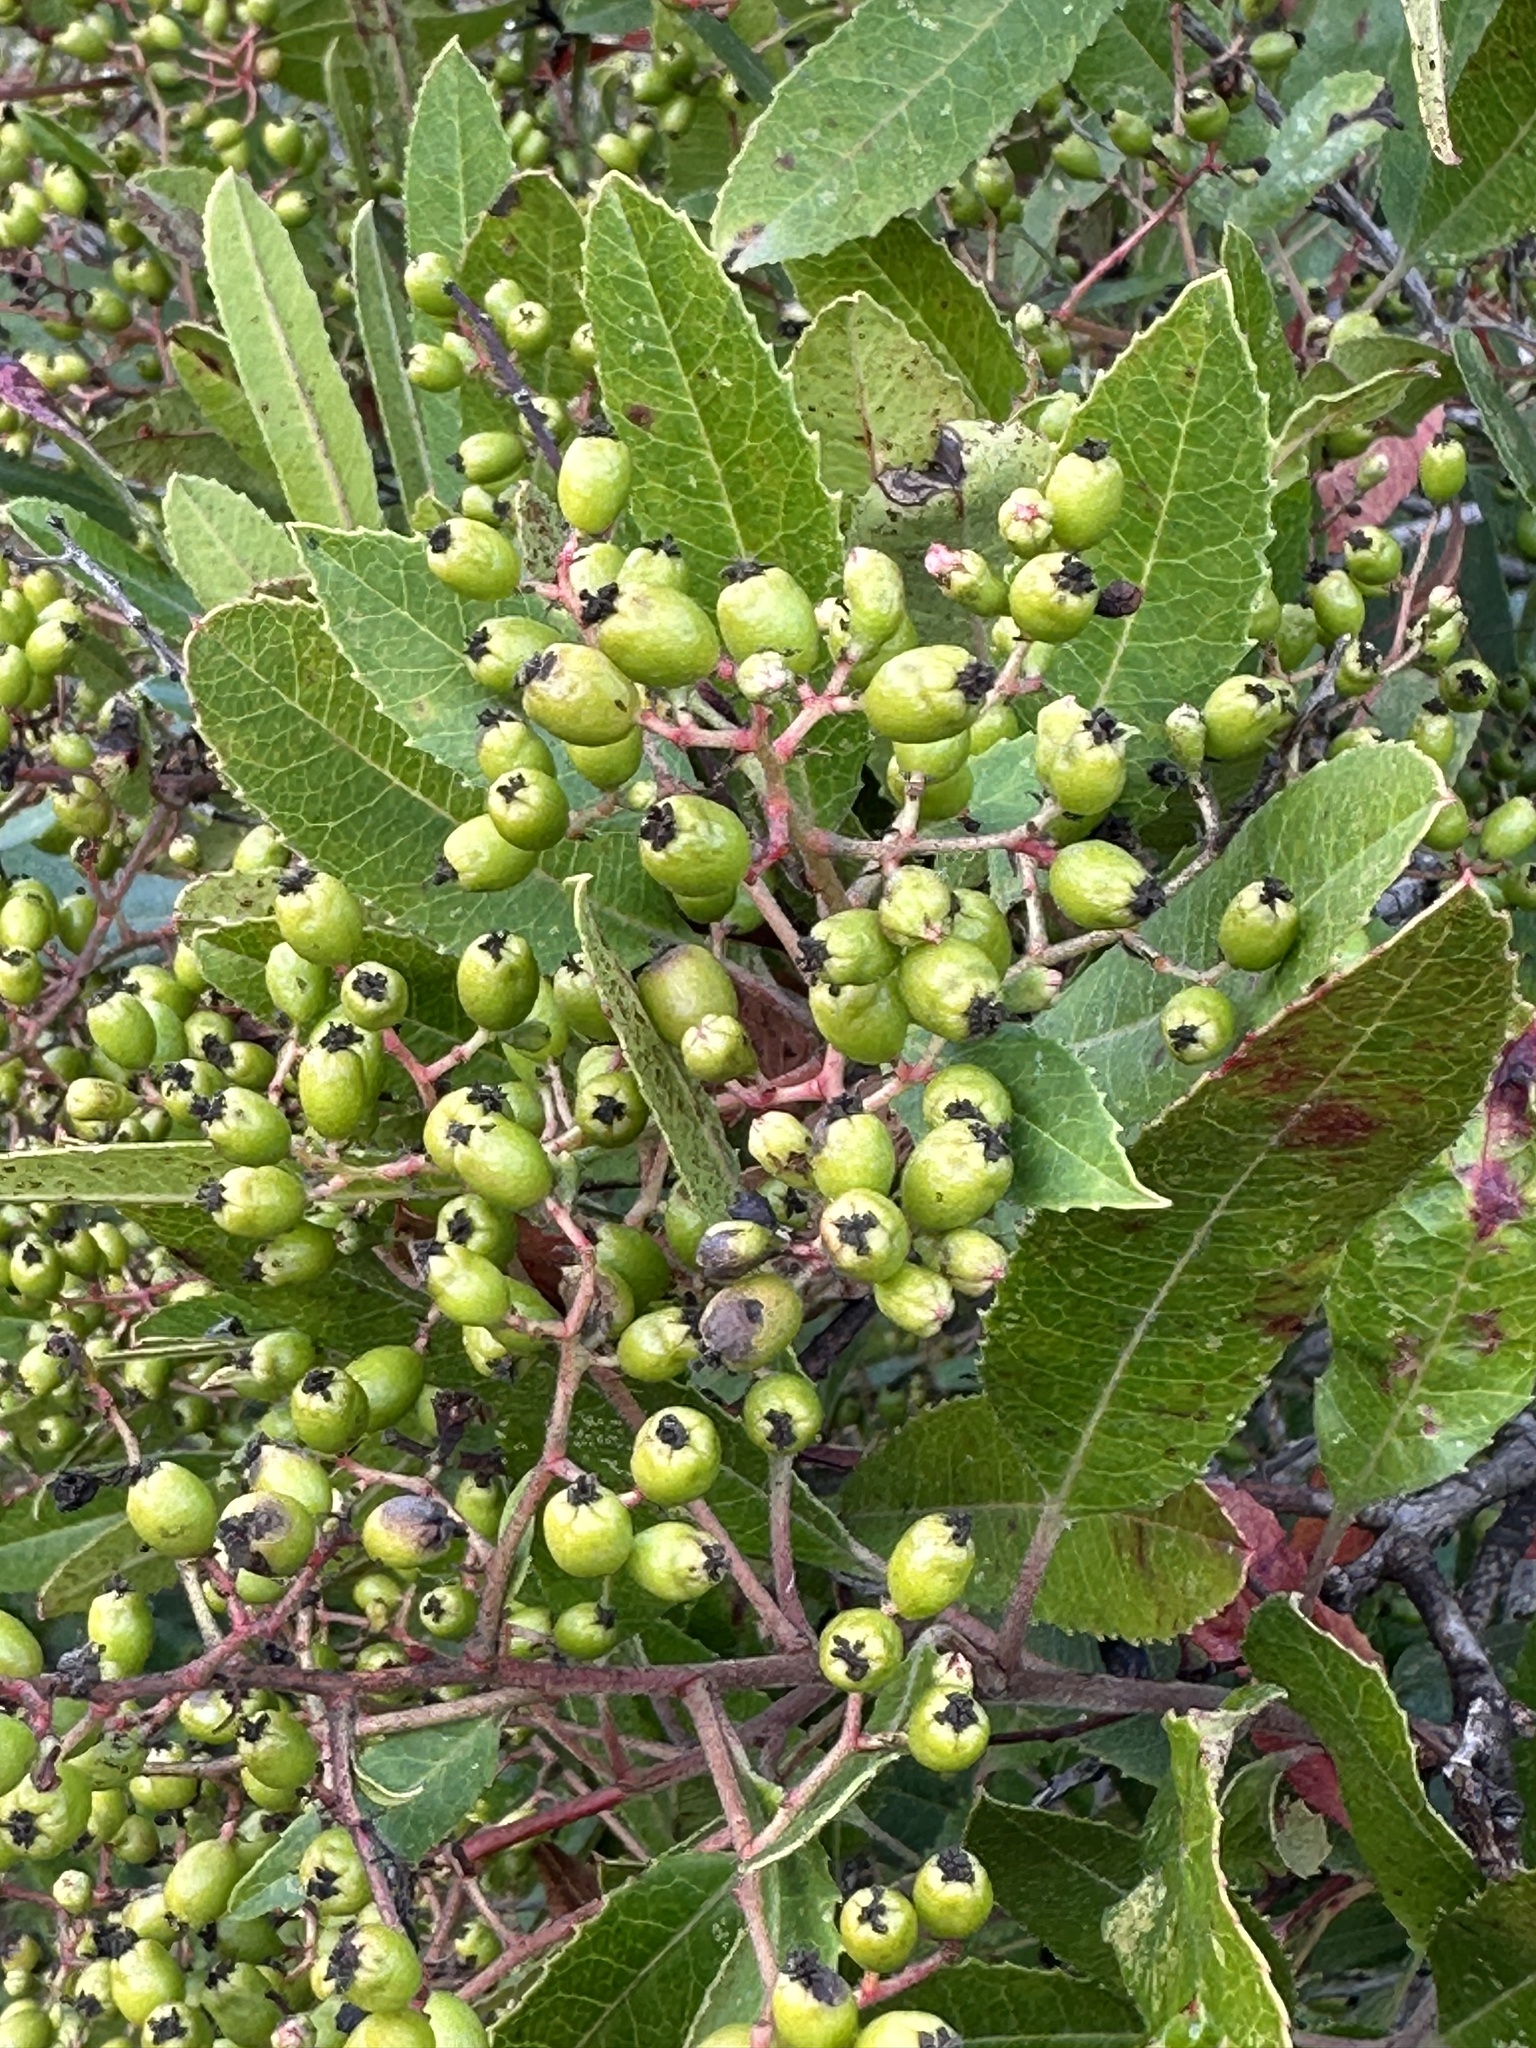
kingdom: Plantae
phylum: Tracheophyta
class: Magnoliopsida
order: Rosales
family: Rosaceae
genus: Heteromeles
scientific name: Heteromeles arbutifolia
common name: California-holly
